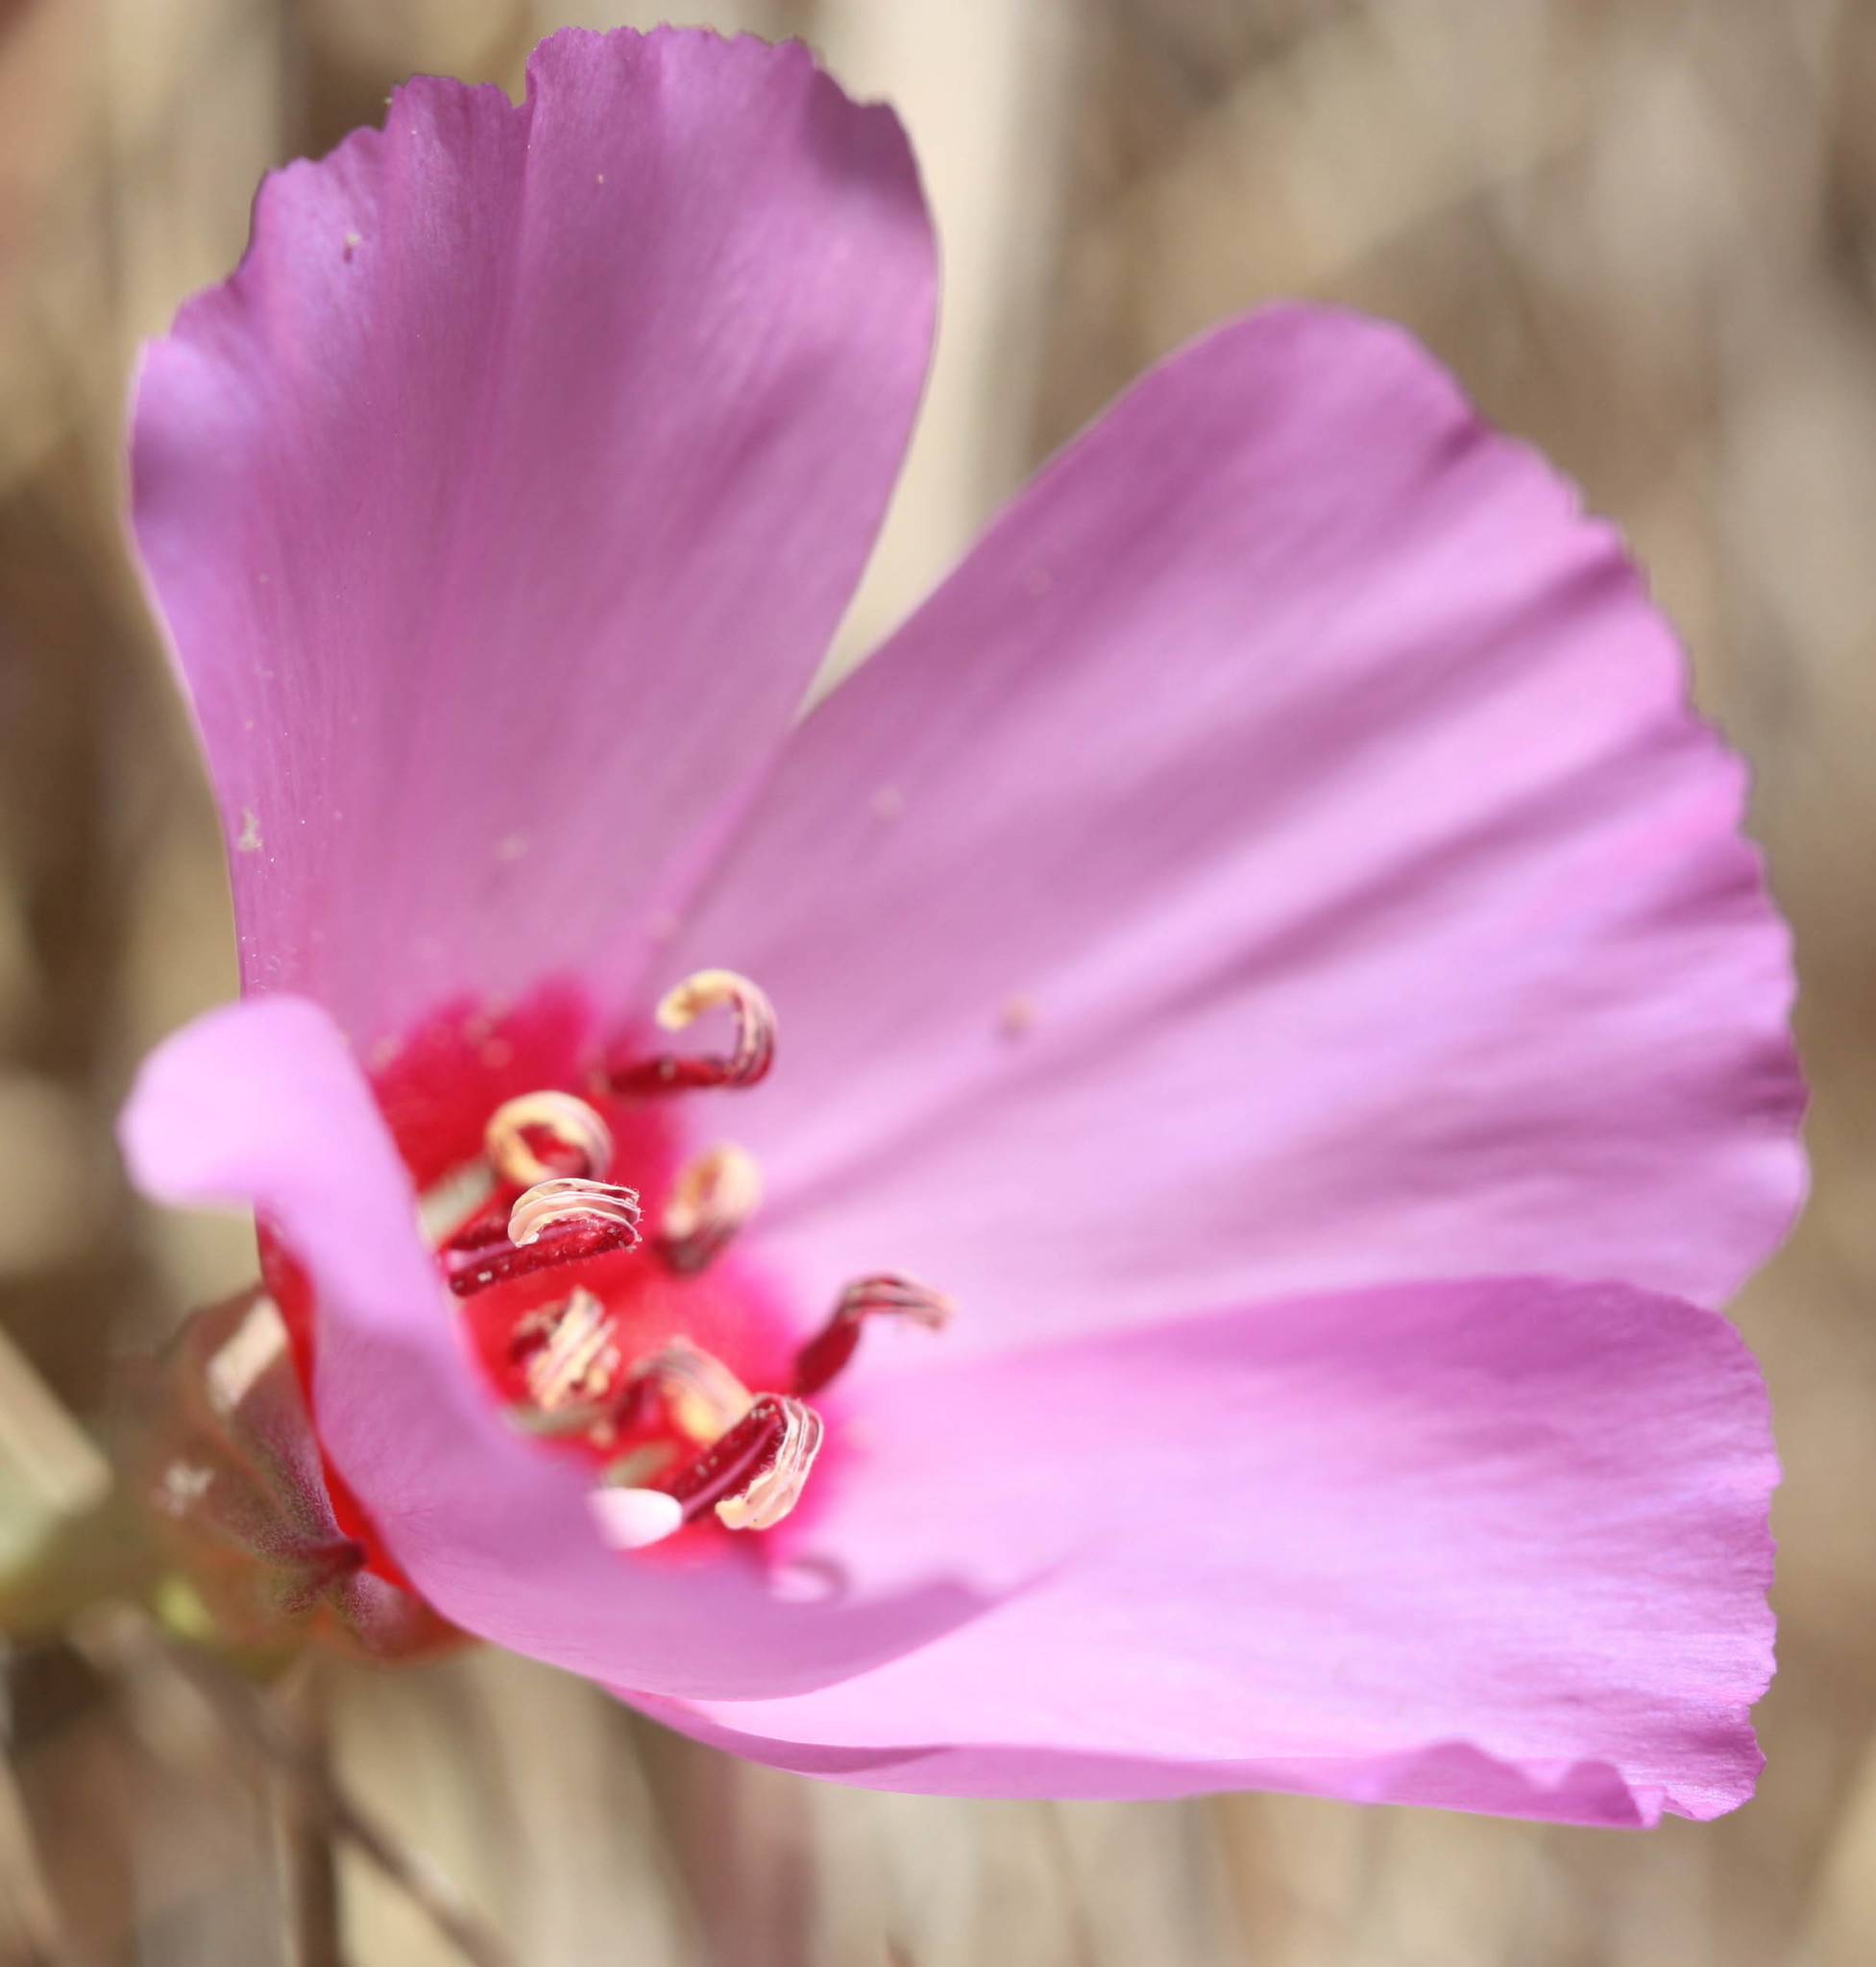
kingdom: Plantae
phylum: Tracheophyta
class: Magnoliopsida
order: Myrtales
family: Onagraceae
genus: Clarkia
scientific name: Clarkia rubicunda
